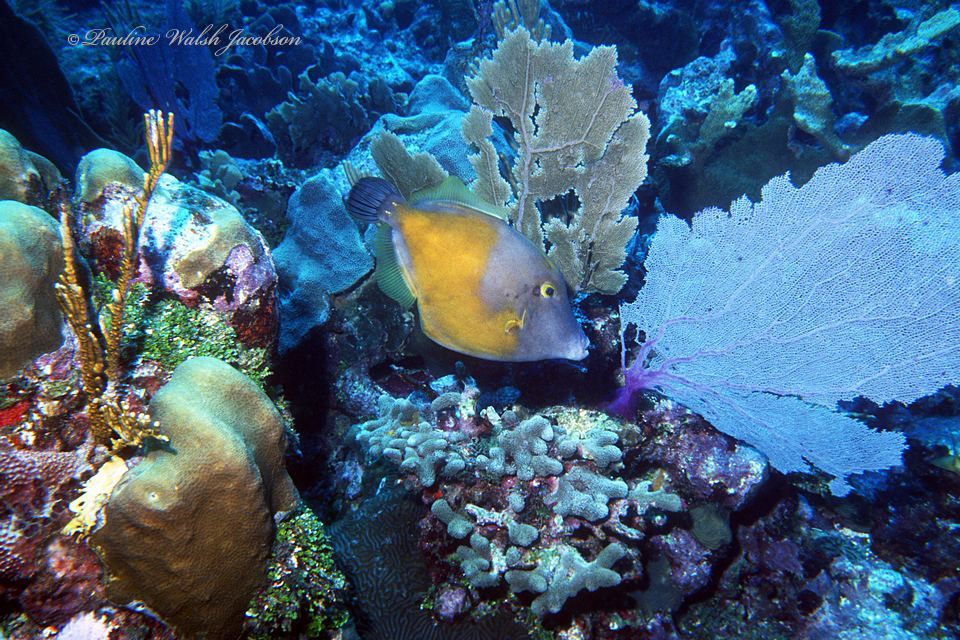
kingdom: Animalia
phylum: Chordata
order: Tetraodontiformes
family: Monacanthidae
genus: Cantherhines
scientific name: Cantherhines macrocerus
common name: Whitespotted filefish
